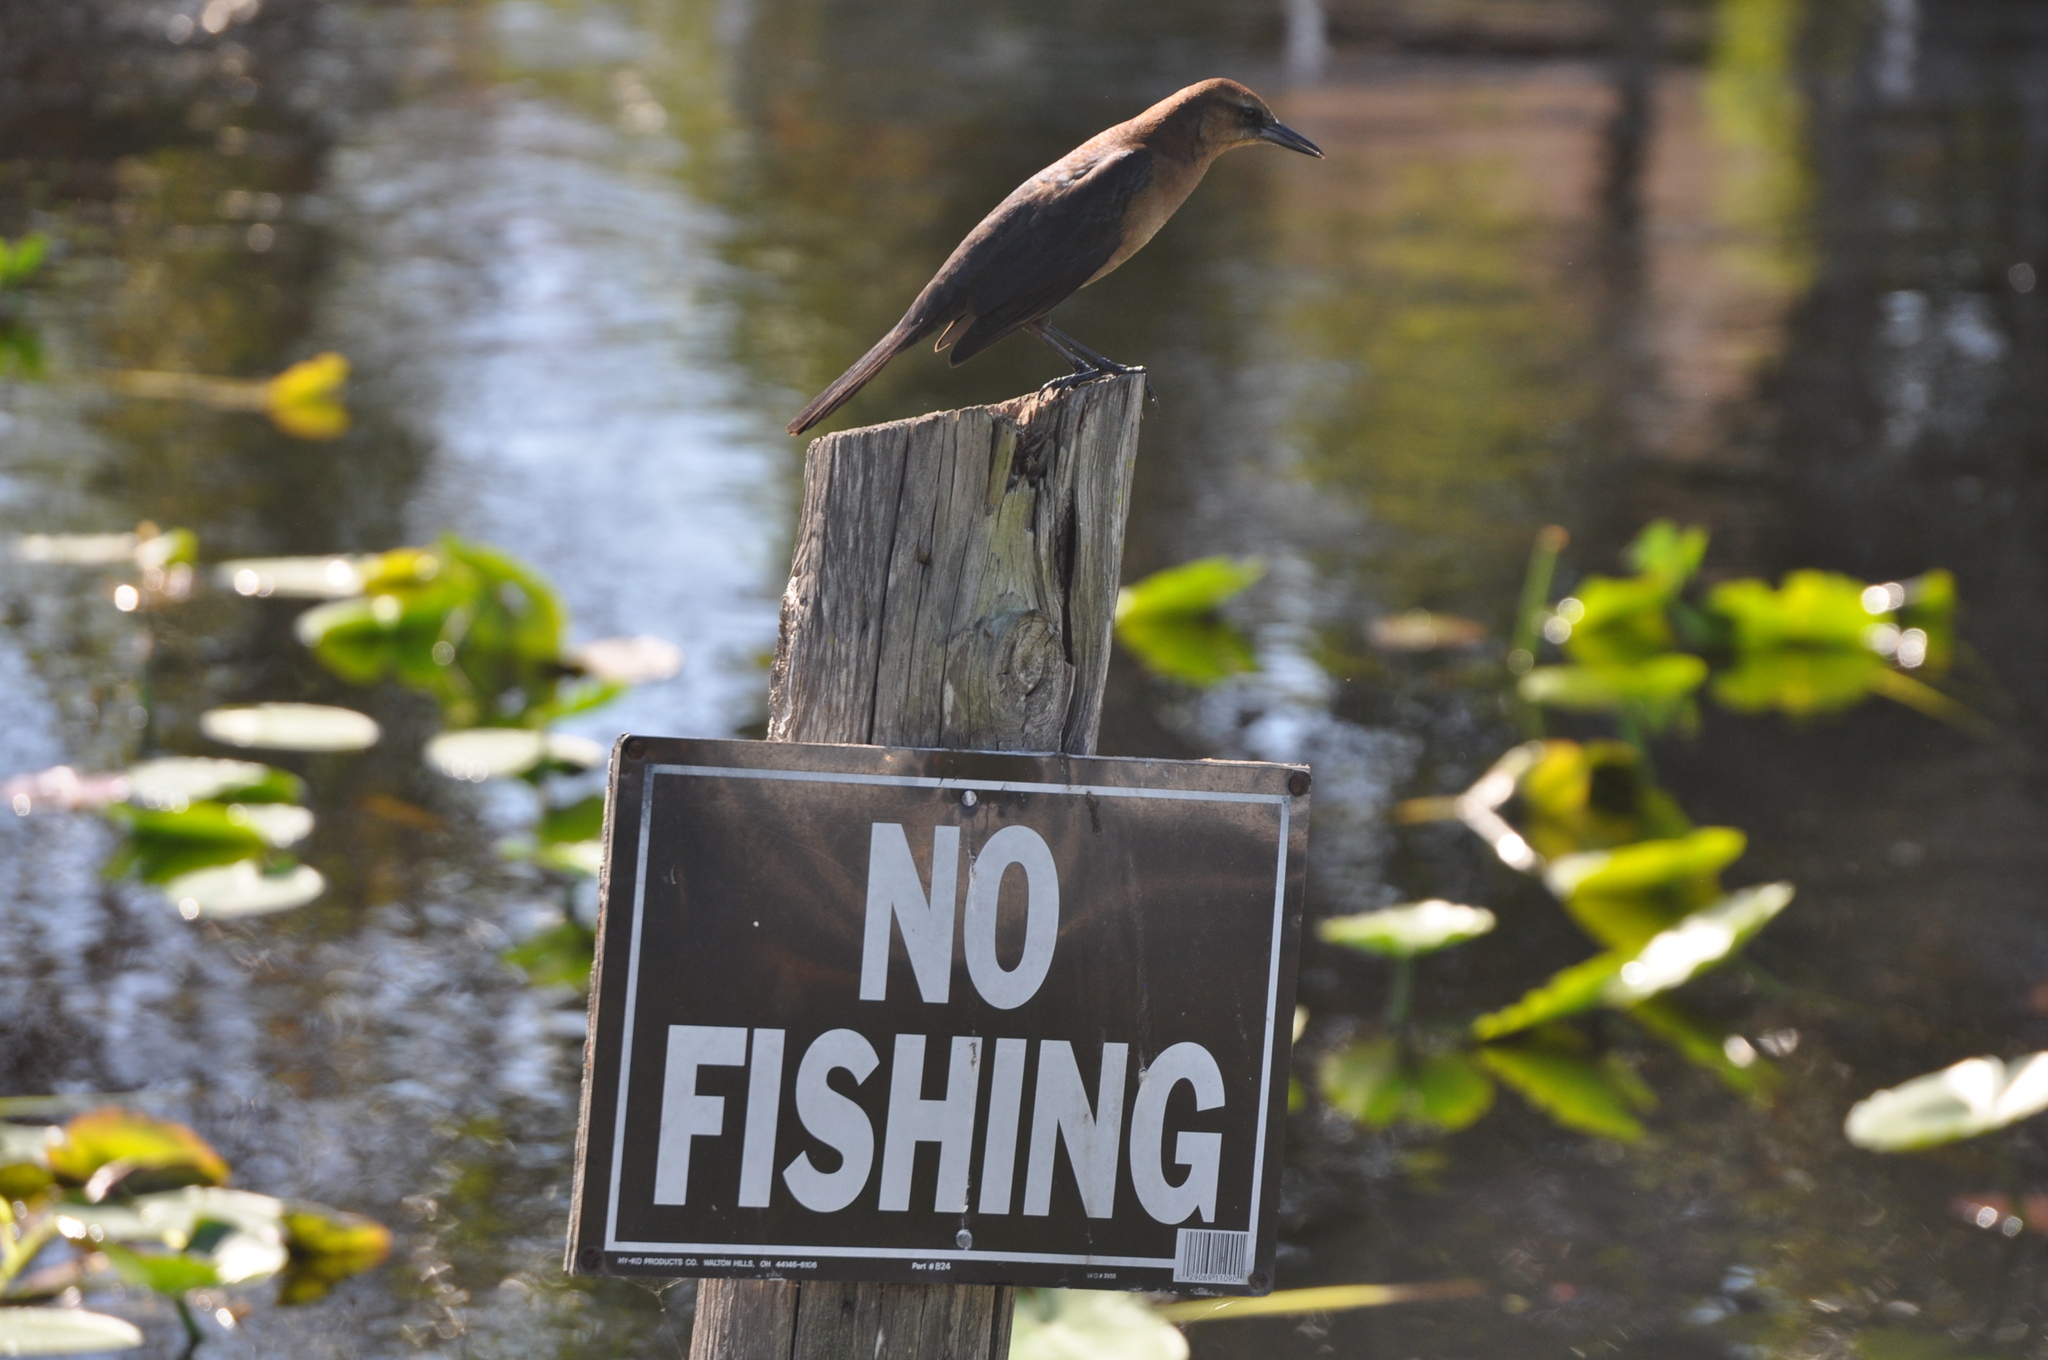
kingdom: Animalia
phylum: Chordata
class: Aves
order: Passeriformes
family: Icteridae
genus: Quiscalus
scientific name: Quiscalus major
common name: Boat-tailed grackle
